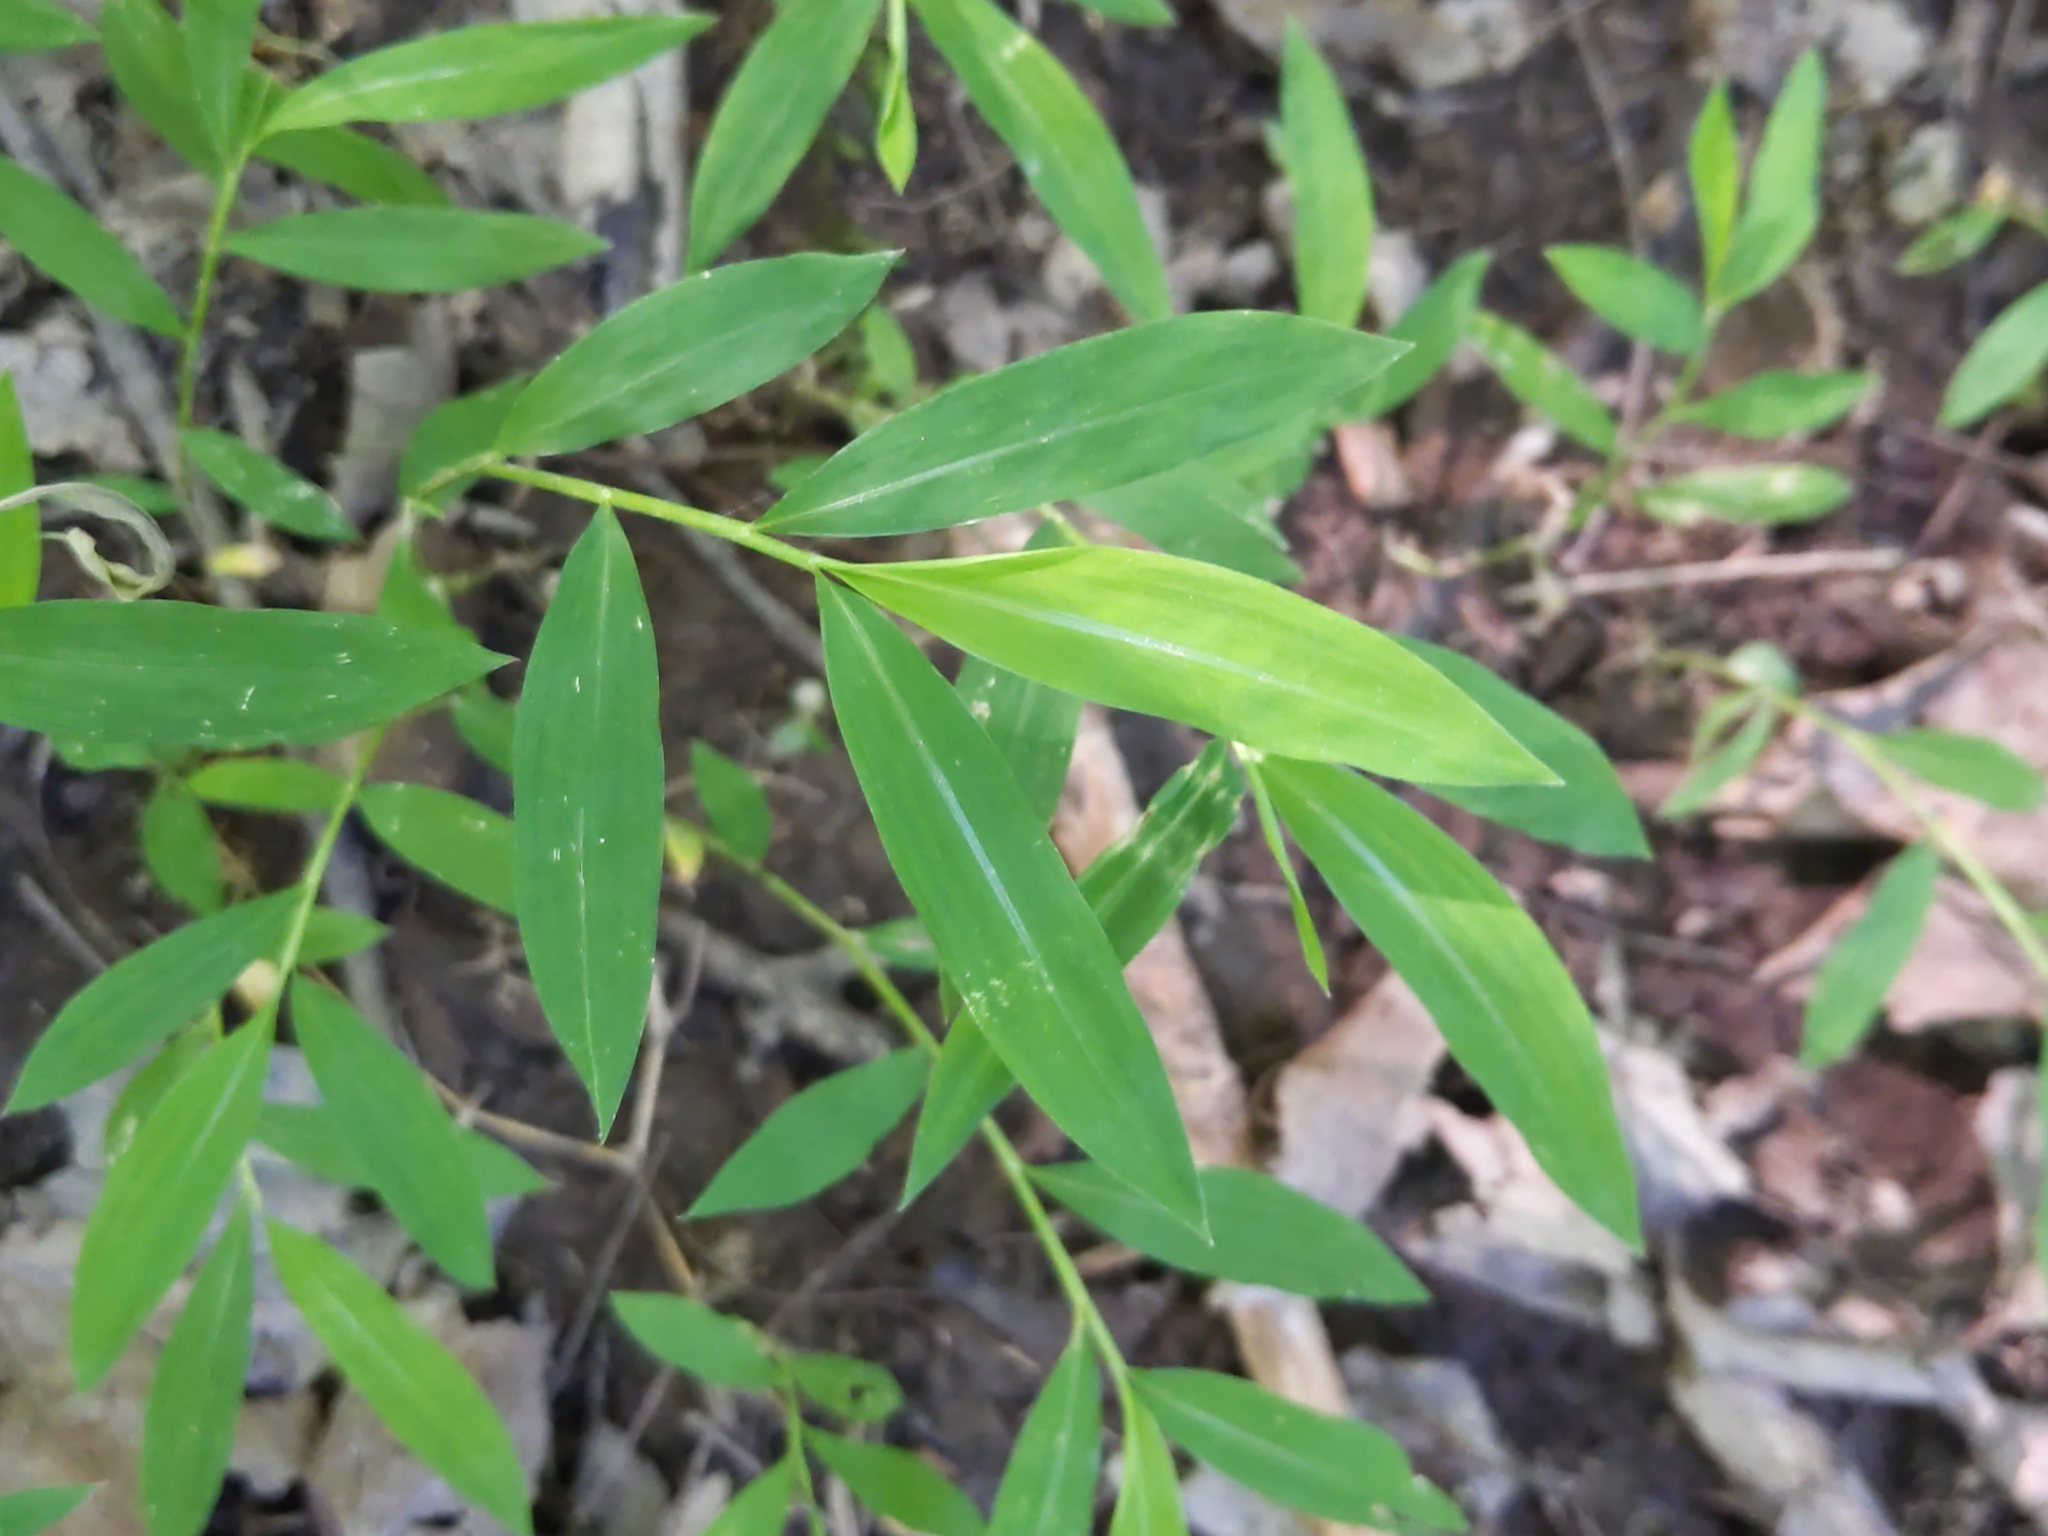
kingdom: Plantae
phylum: Tracheophyta
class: Liliopsida
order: Poales
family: Poaceae
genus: Microstegium
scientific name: Microstegium vimineum
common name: Japanese stiltgrass
